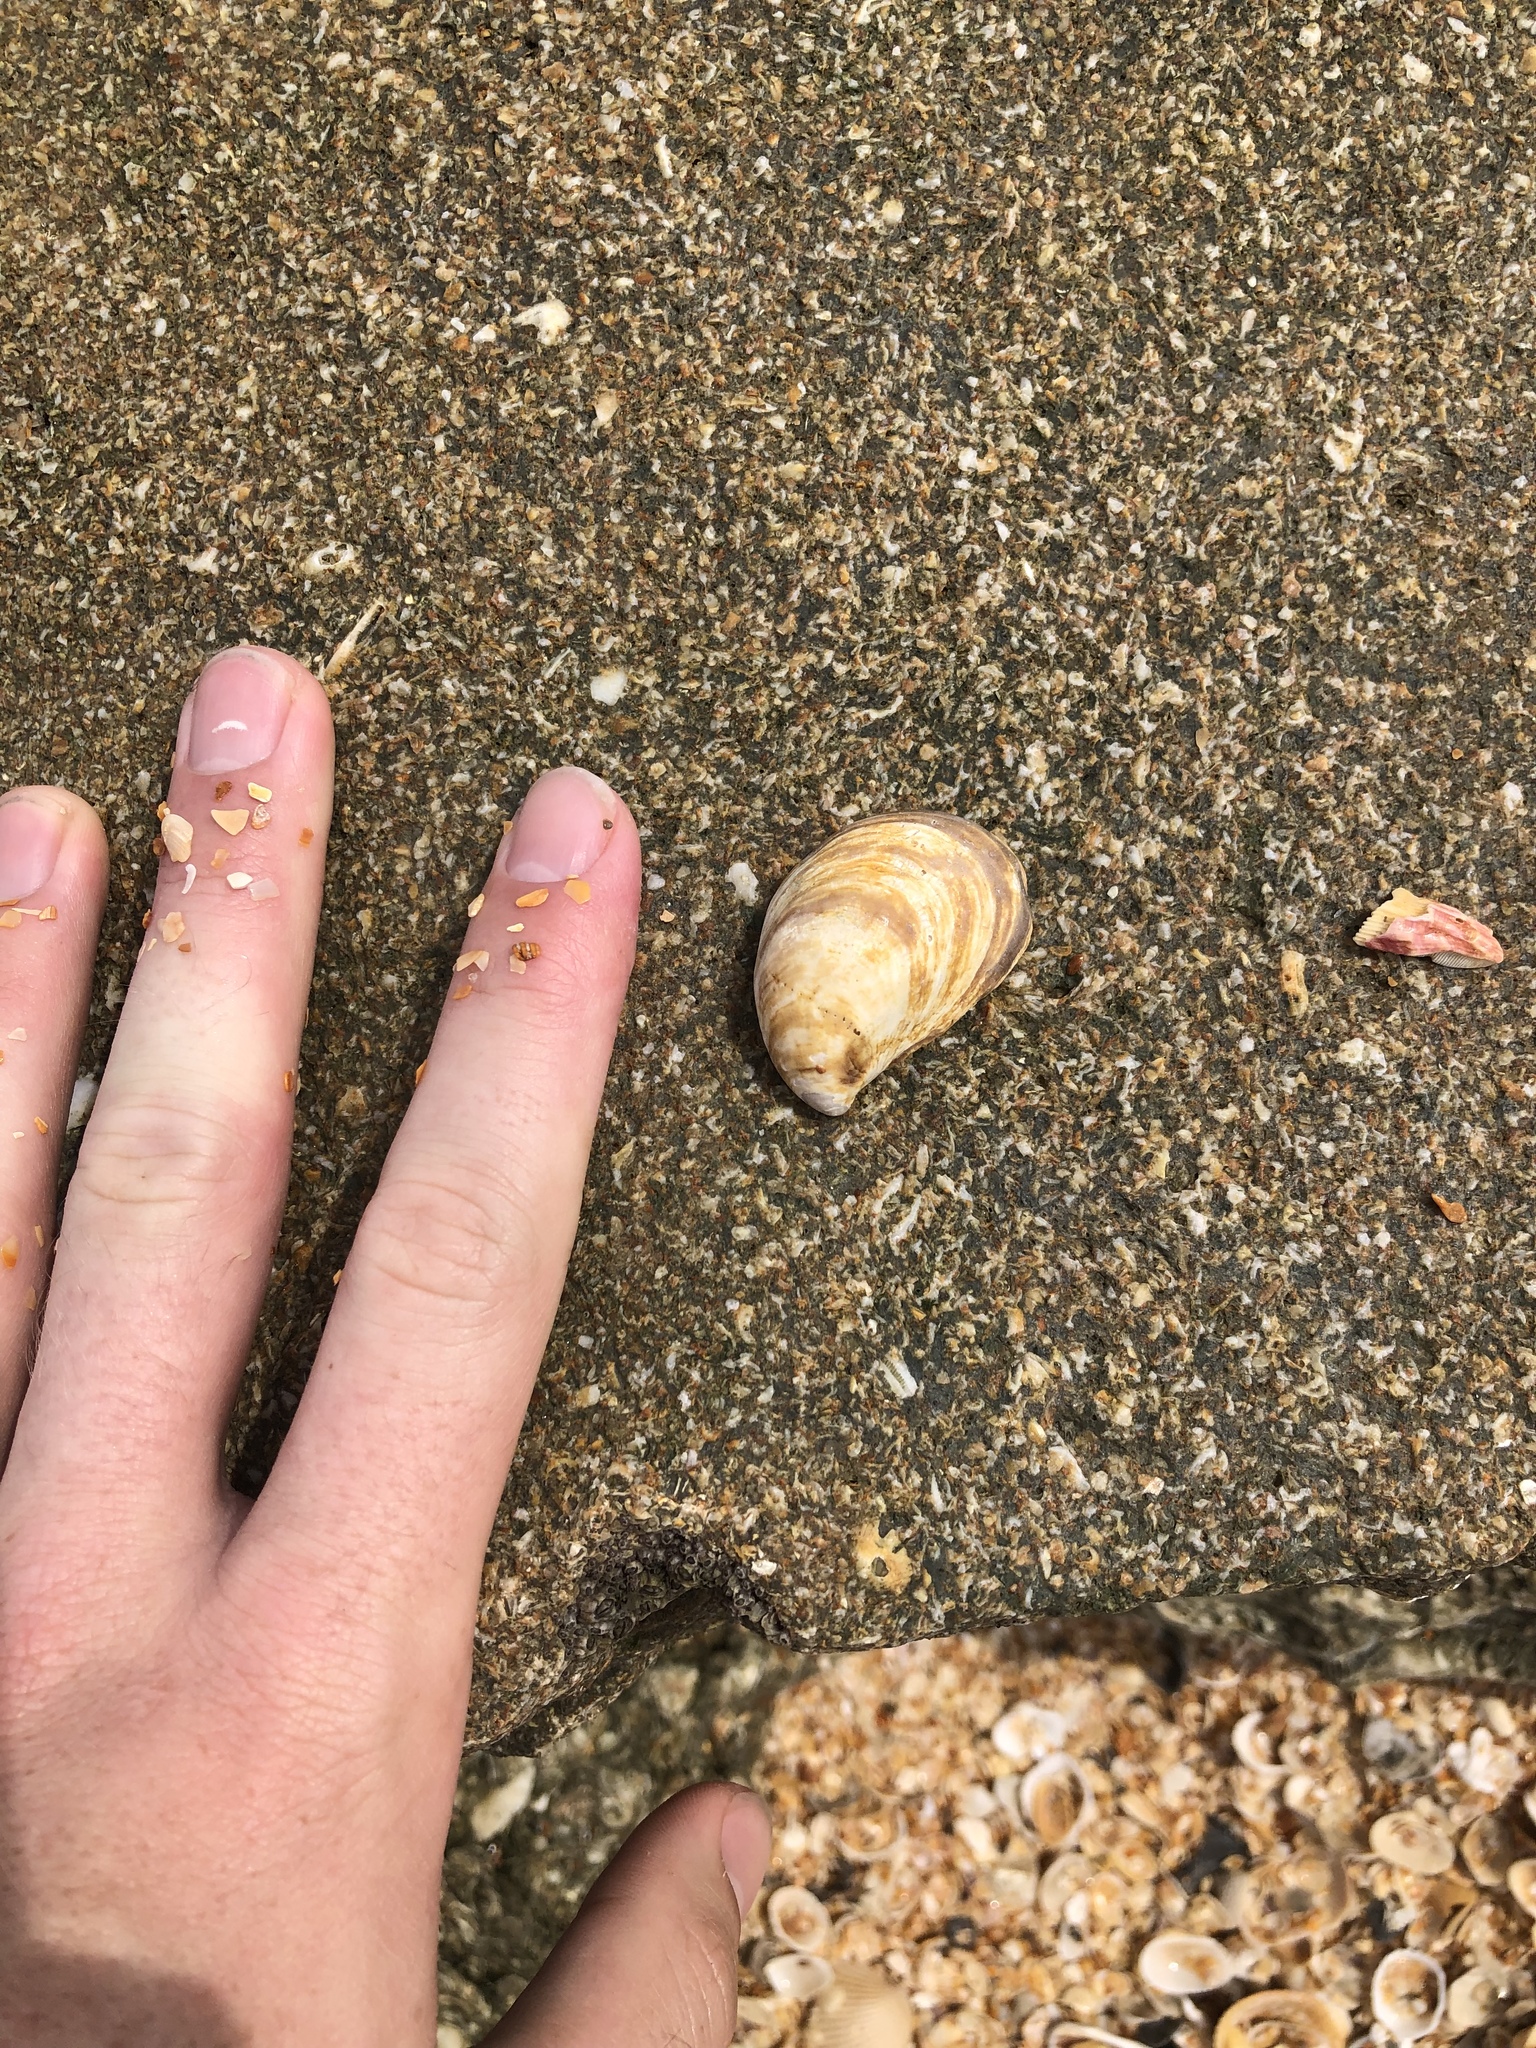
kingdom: Animalia
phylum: Mollusca
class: Gastropoda
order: Littorinimorpha
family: Calyptraeidae
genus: Crepidula
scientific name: Crepidula fornicata
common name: Slipper limpet
